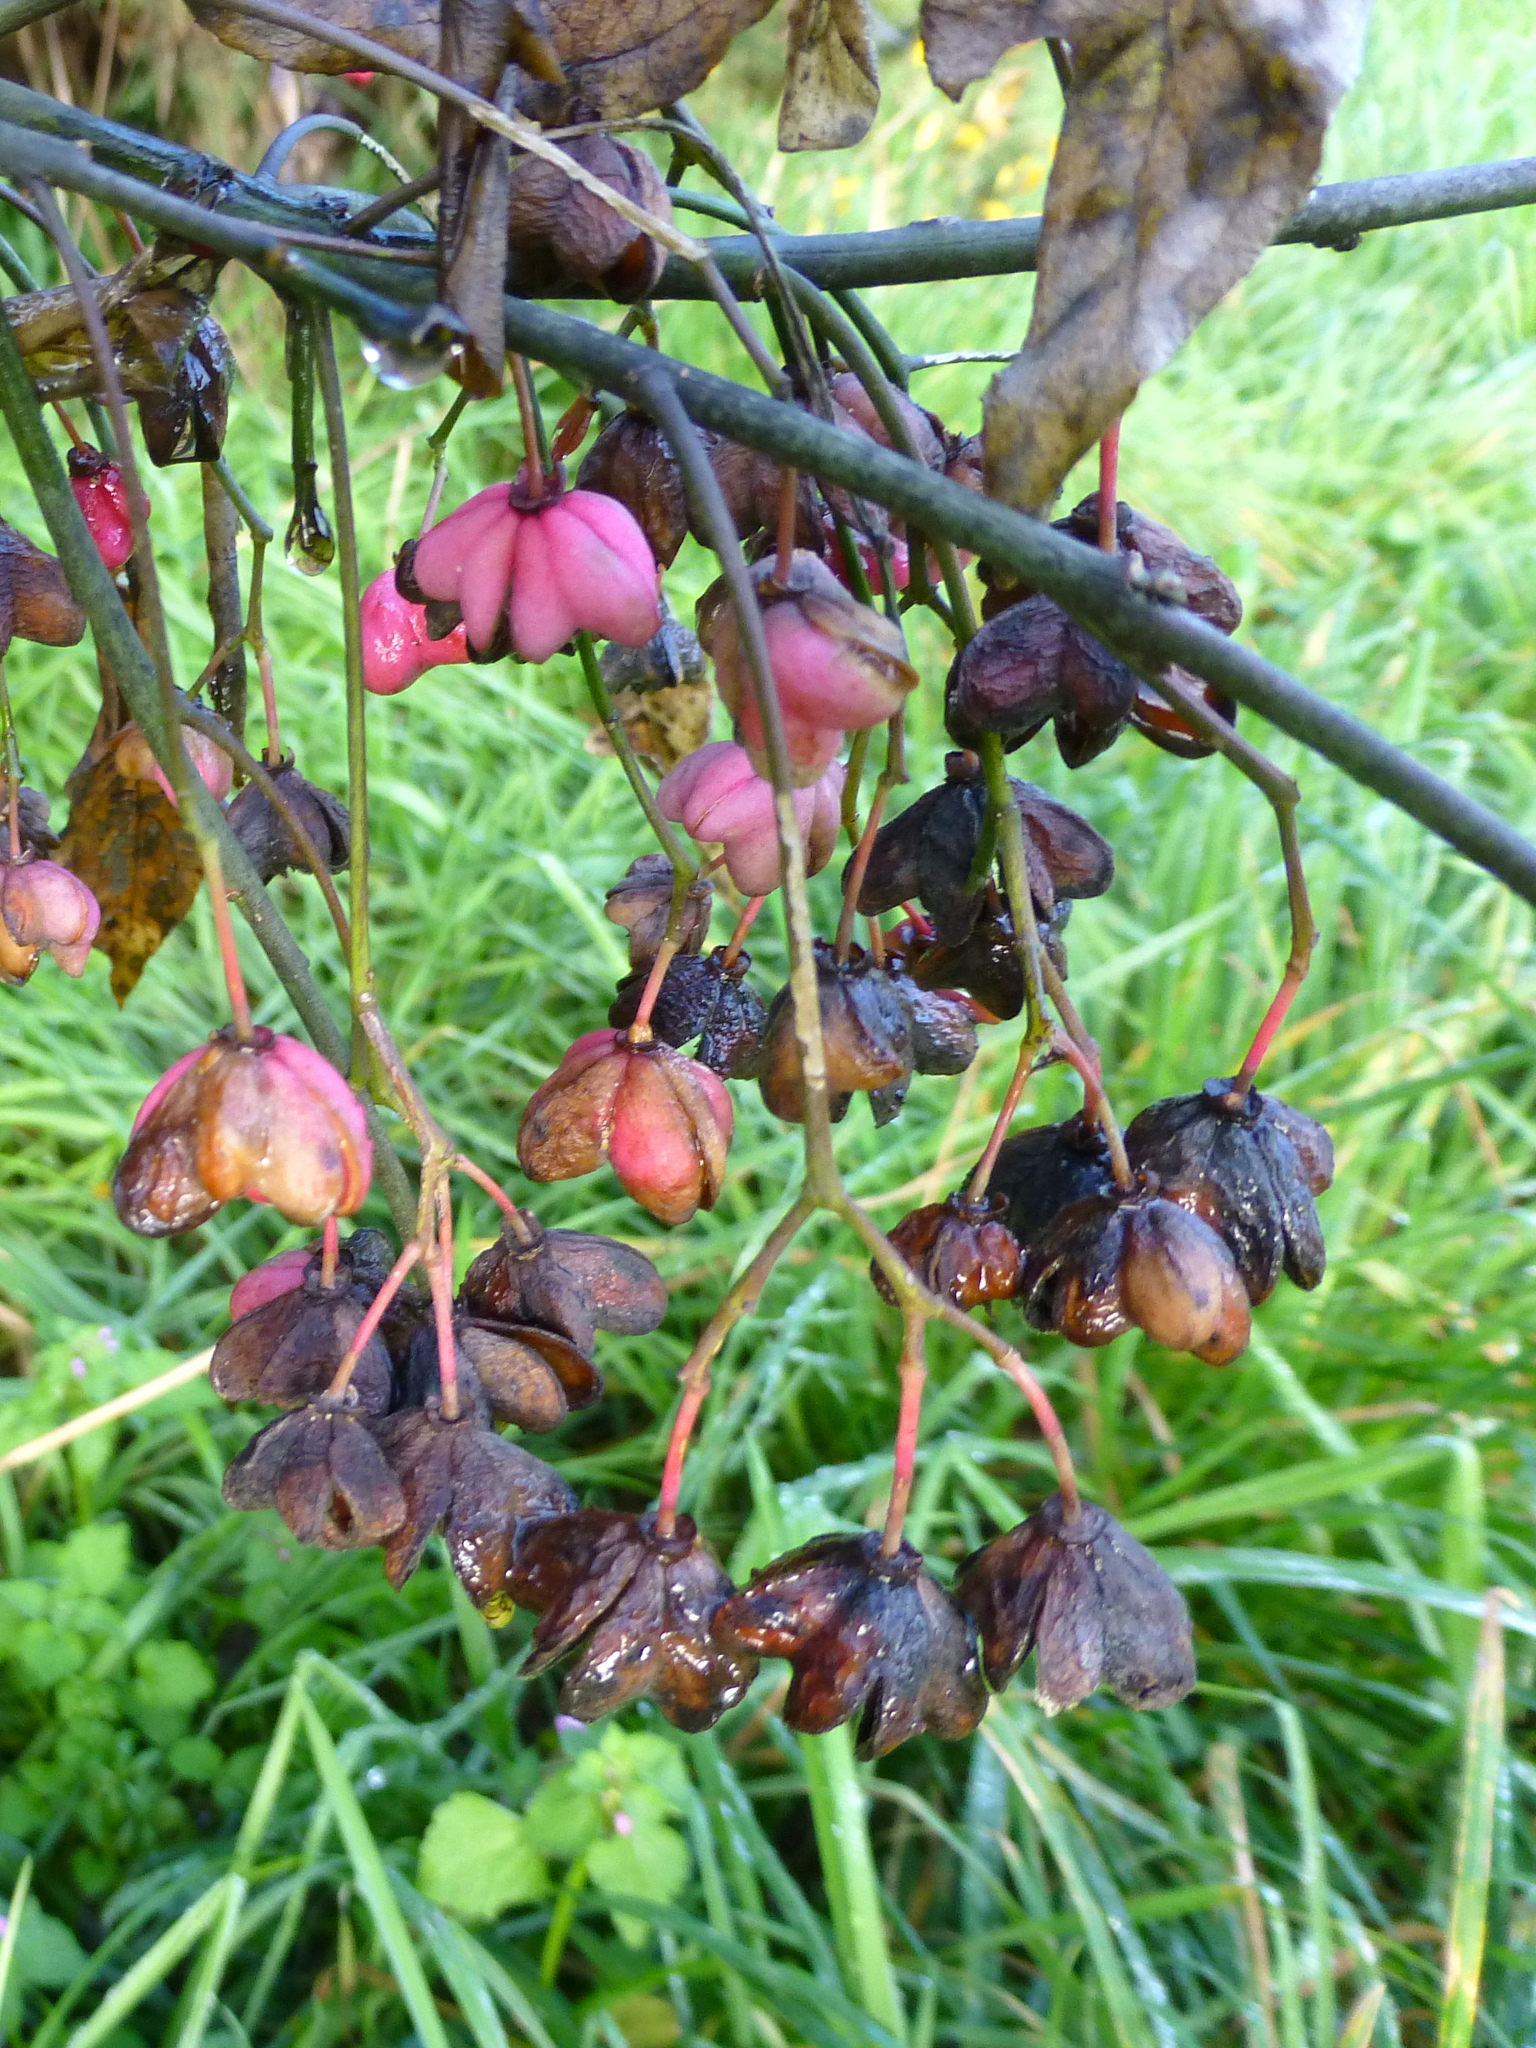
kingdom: Plantae
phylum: Tracheophyta
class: Magnoliopsida
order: Celastrales
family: Celastraceae
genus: Euonymus
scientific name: Euonymus europaeus
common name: Spindle
